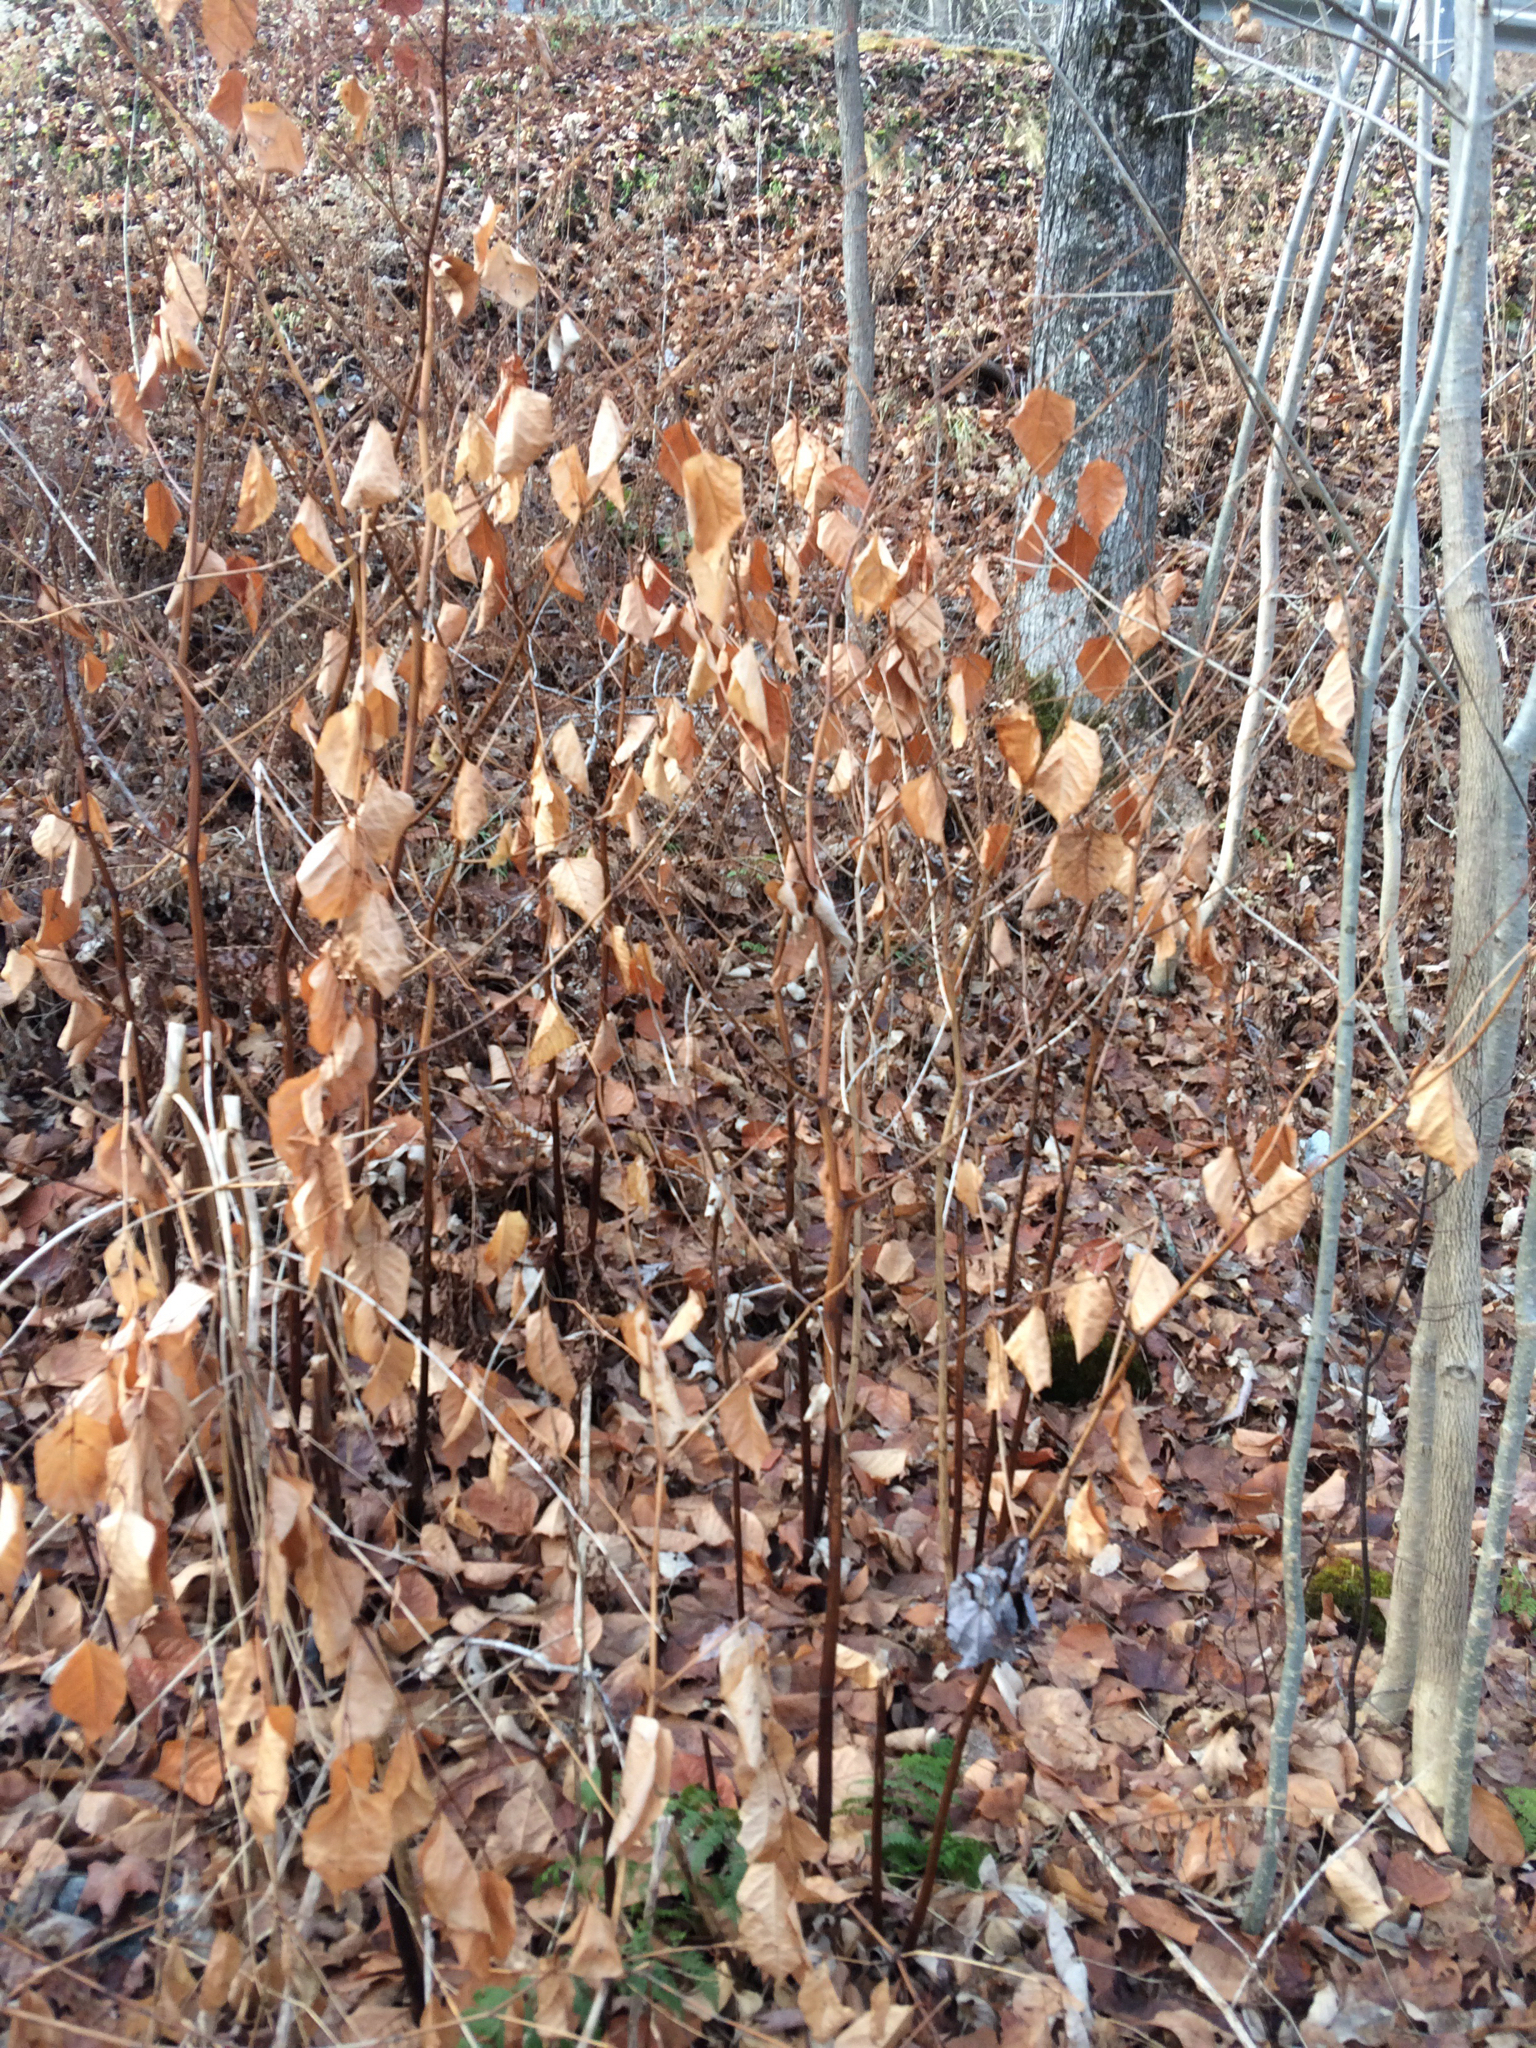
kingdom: Plantae
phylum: Tracheophyta
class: Magnoliopsida
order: Caryophyllales
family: Polygonaceae
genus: Reynoutria
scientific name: Reynoutria japonica
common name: Japanese knotweed
